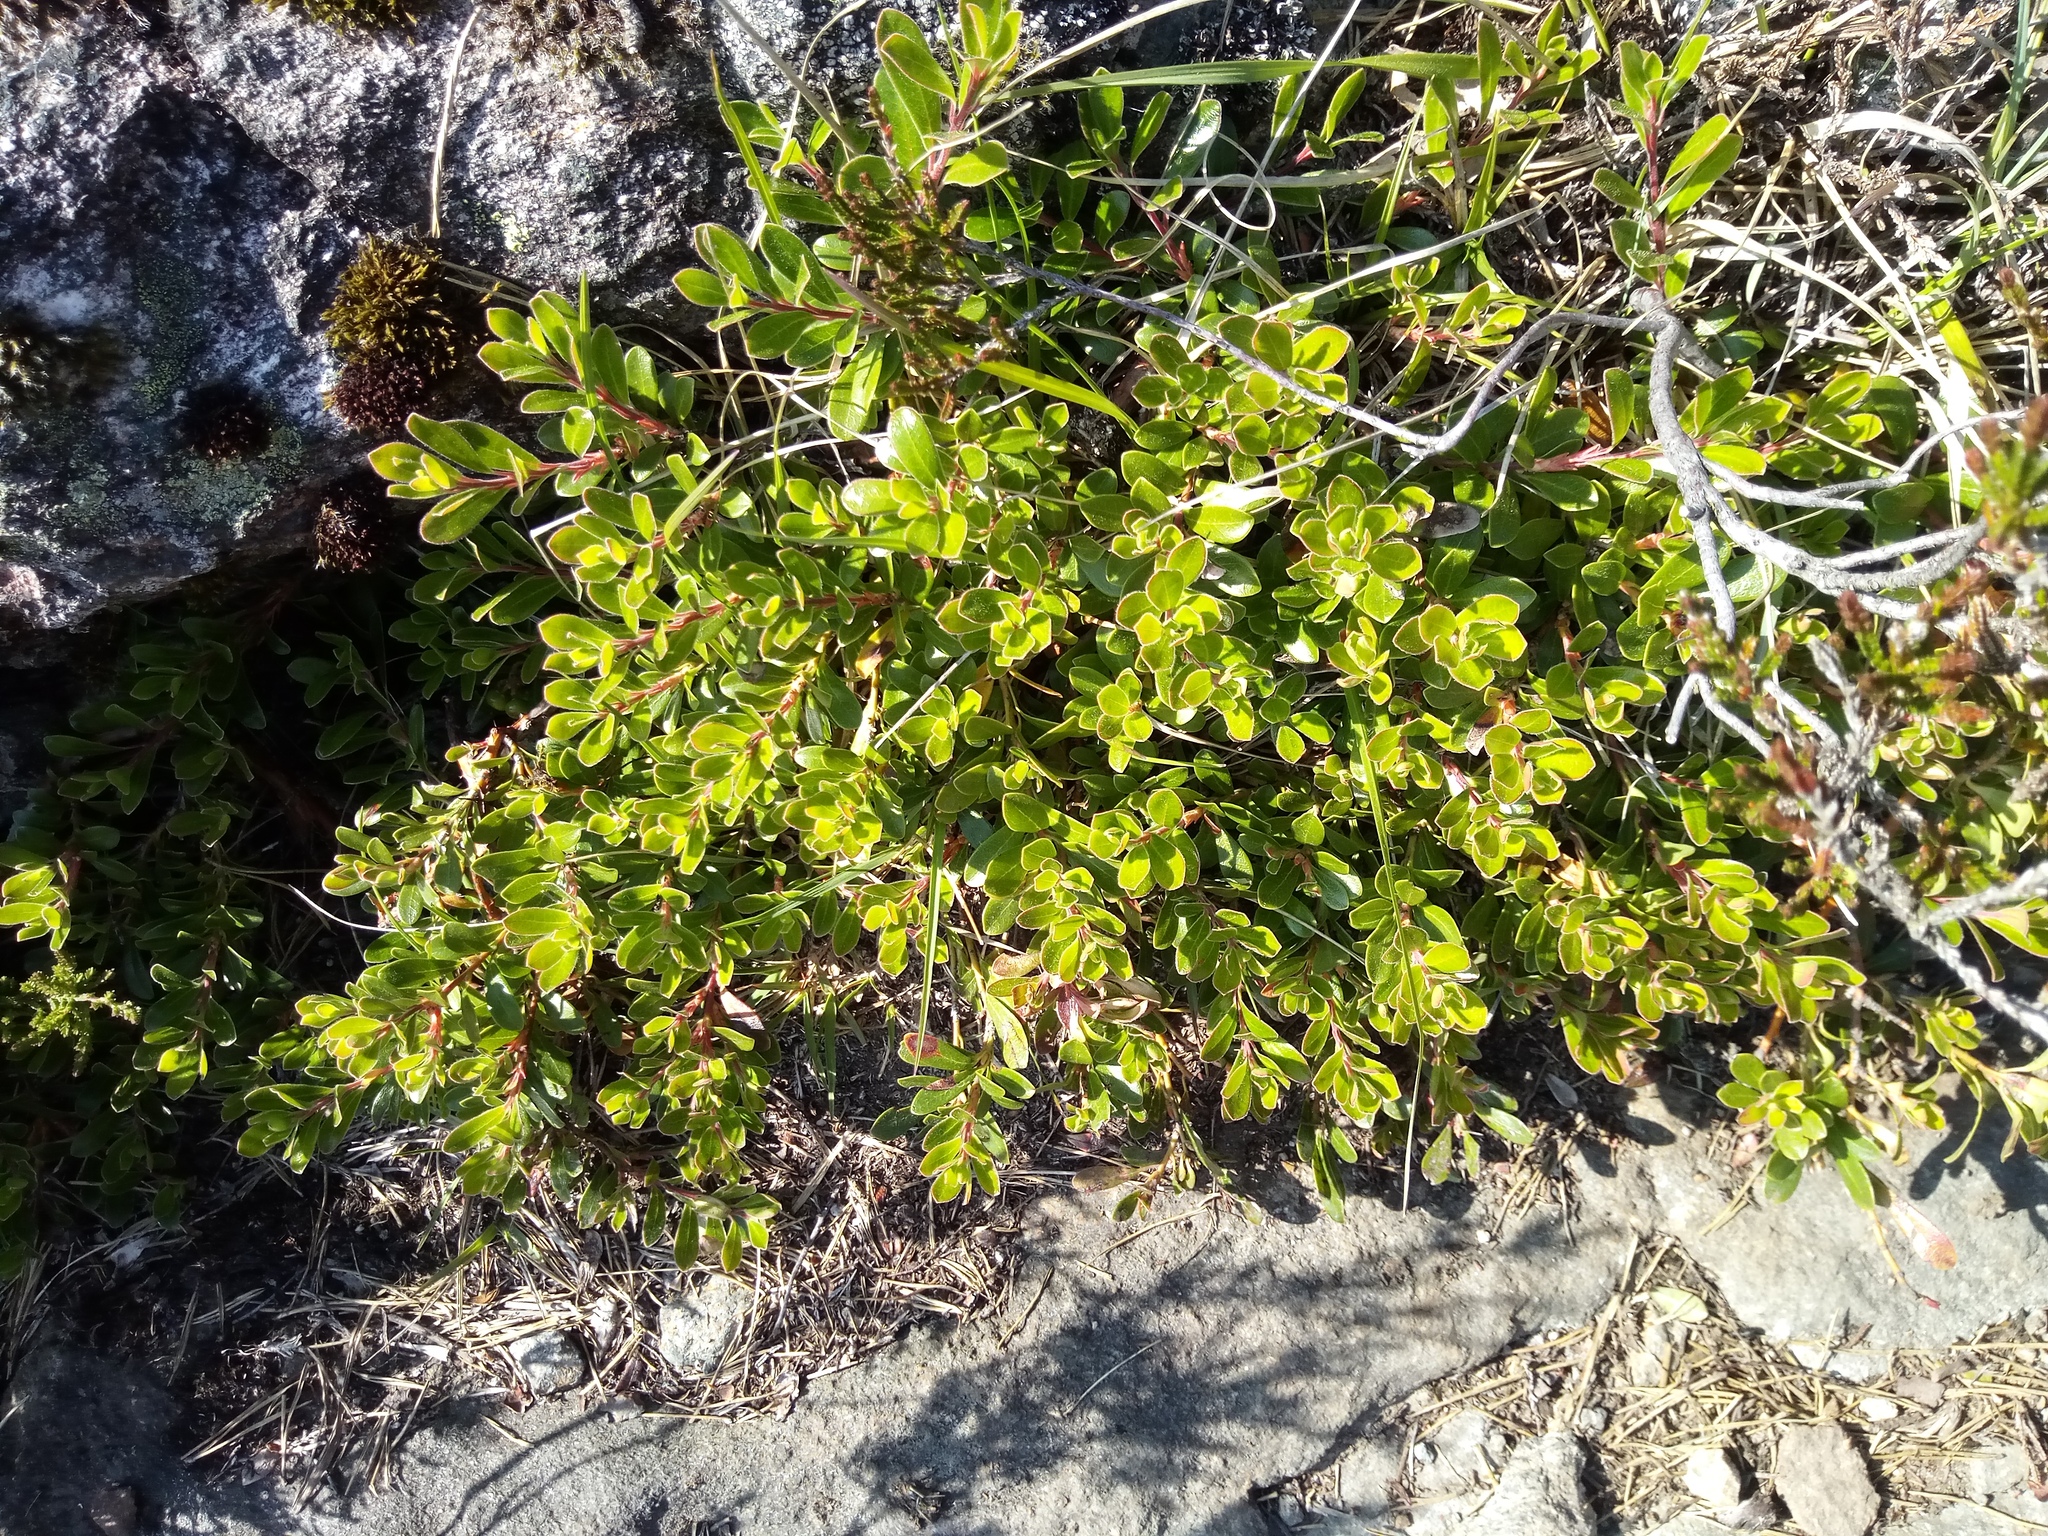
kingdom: Plantae
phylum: Tracheophyta
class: Magnoliopsida
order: Ericales
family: Ericaceae
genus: Arctostaphylos
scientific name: Arctostaphylos uva-ursi
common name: Bearberry
